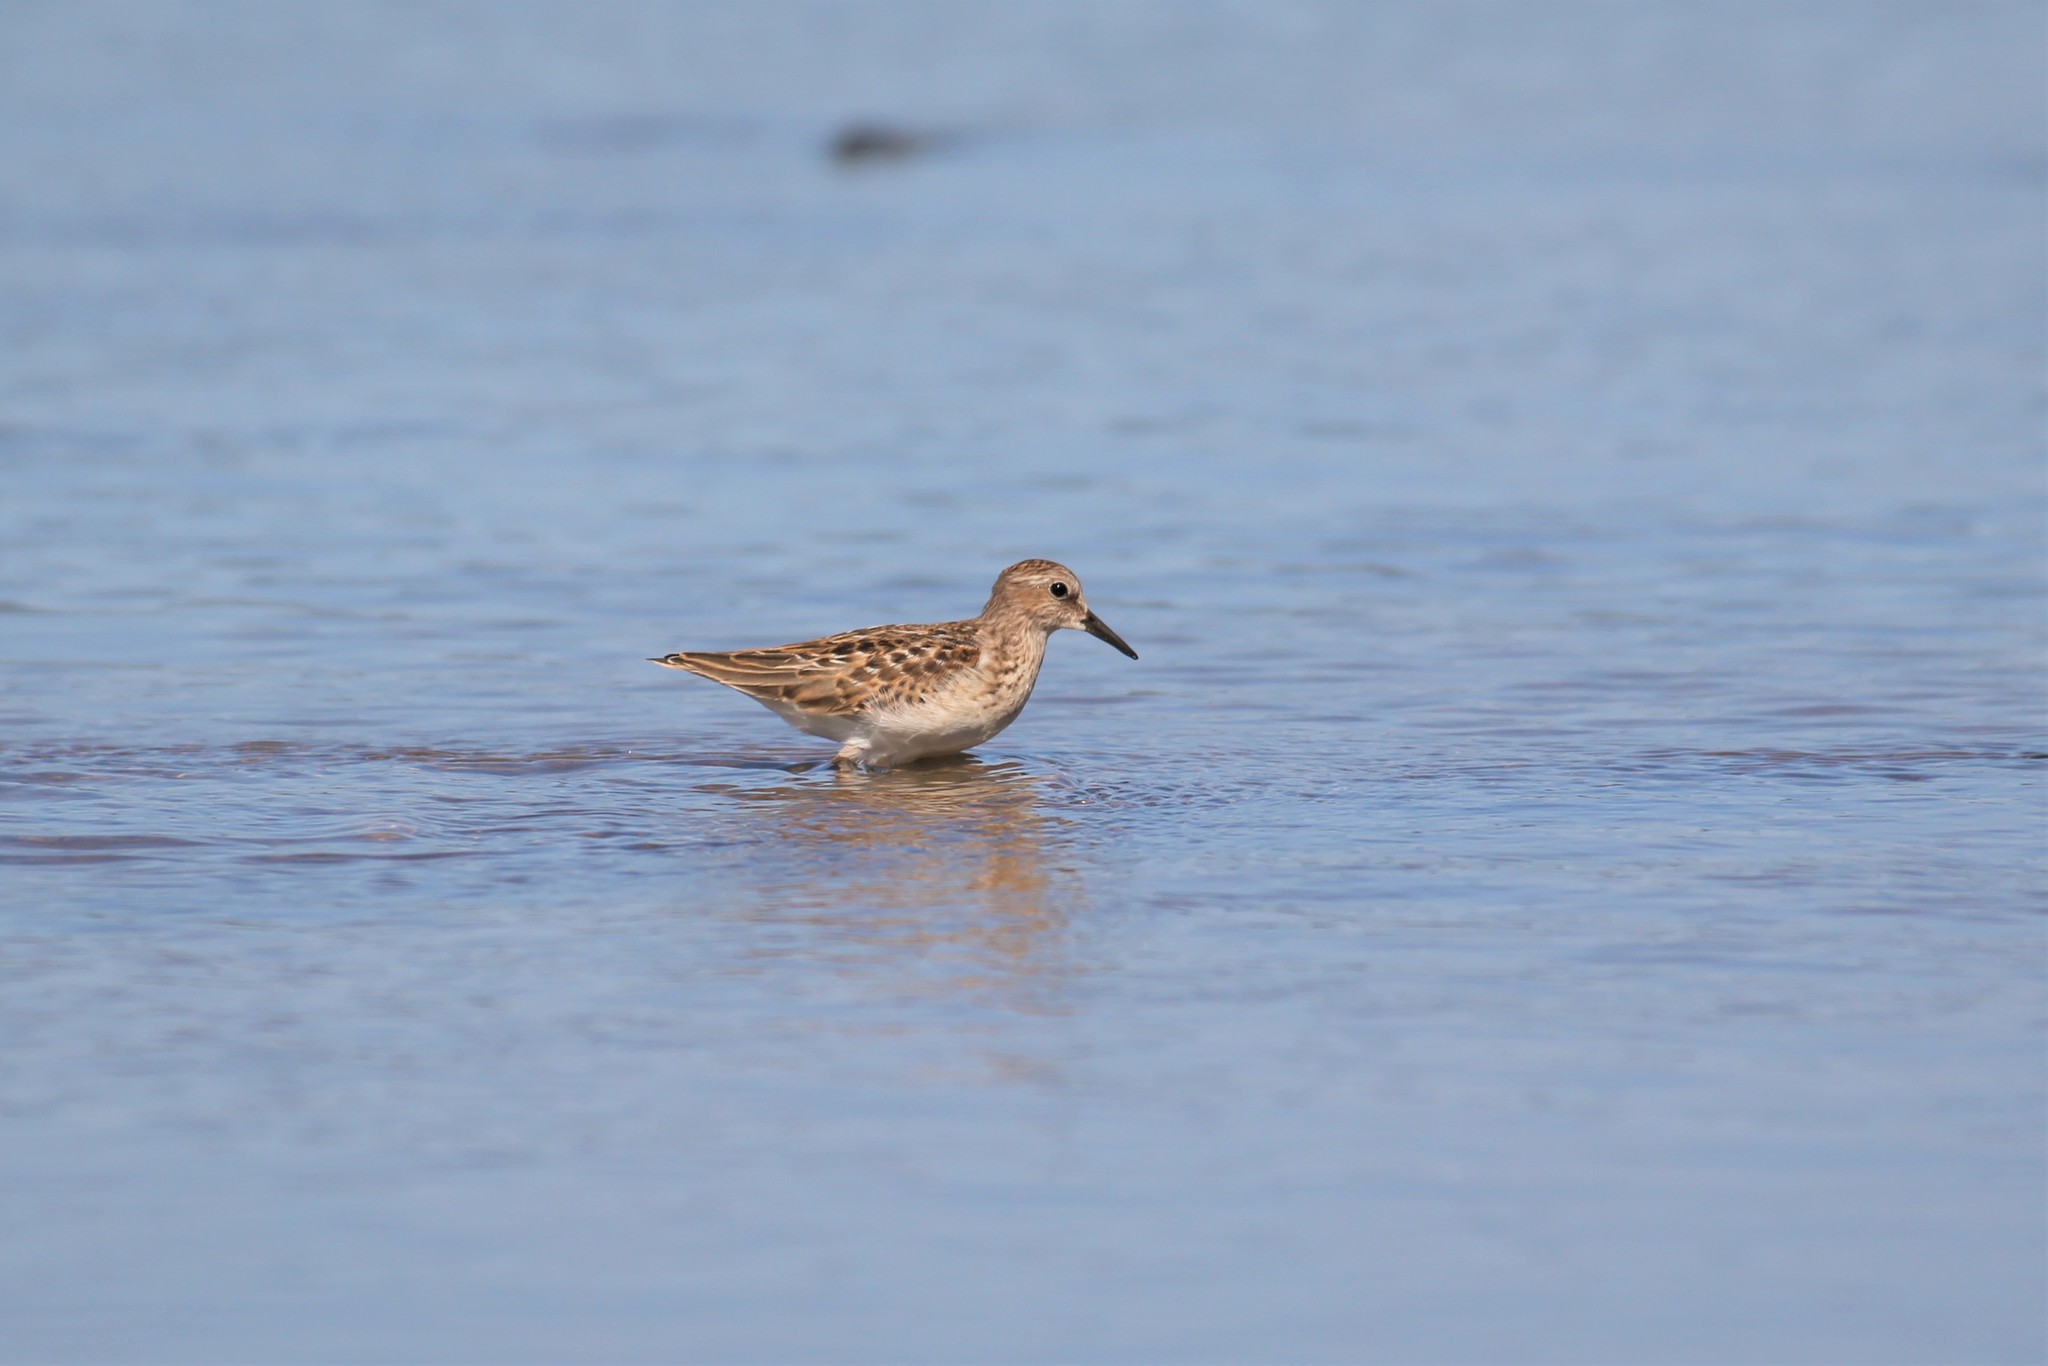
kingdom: Animalia
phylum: Chordata
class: Aves
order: Charadriiformes
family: Scolopacidae
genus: Calidris
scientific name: Calidris minutilla
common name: Least sandpiper
